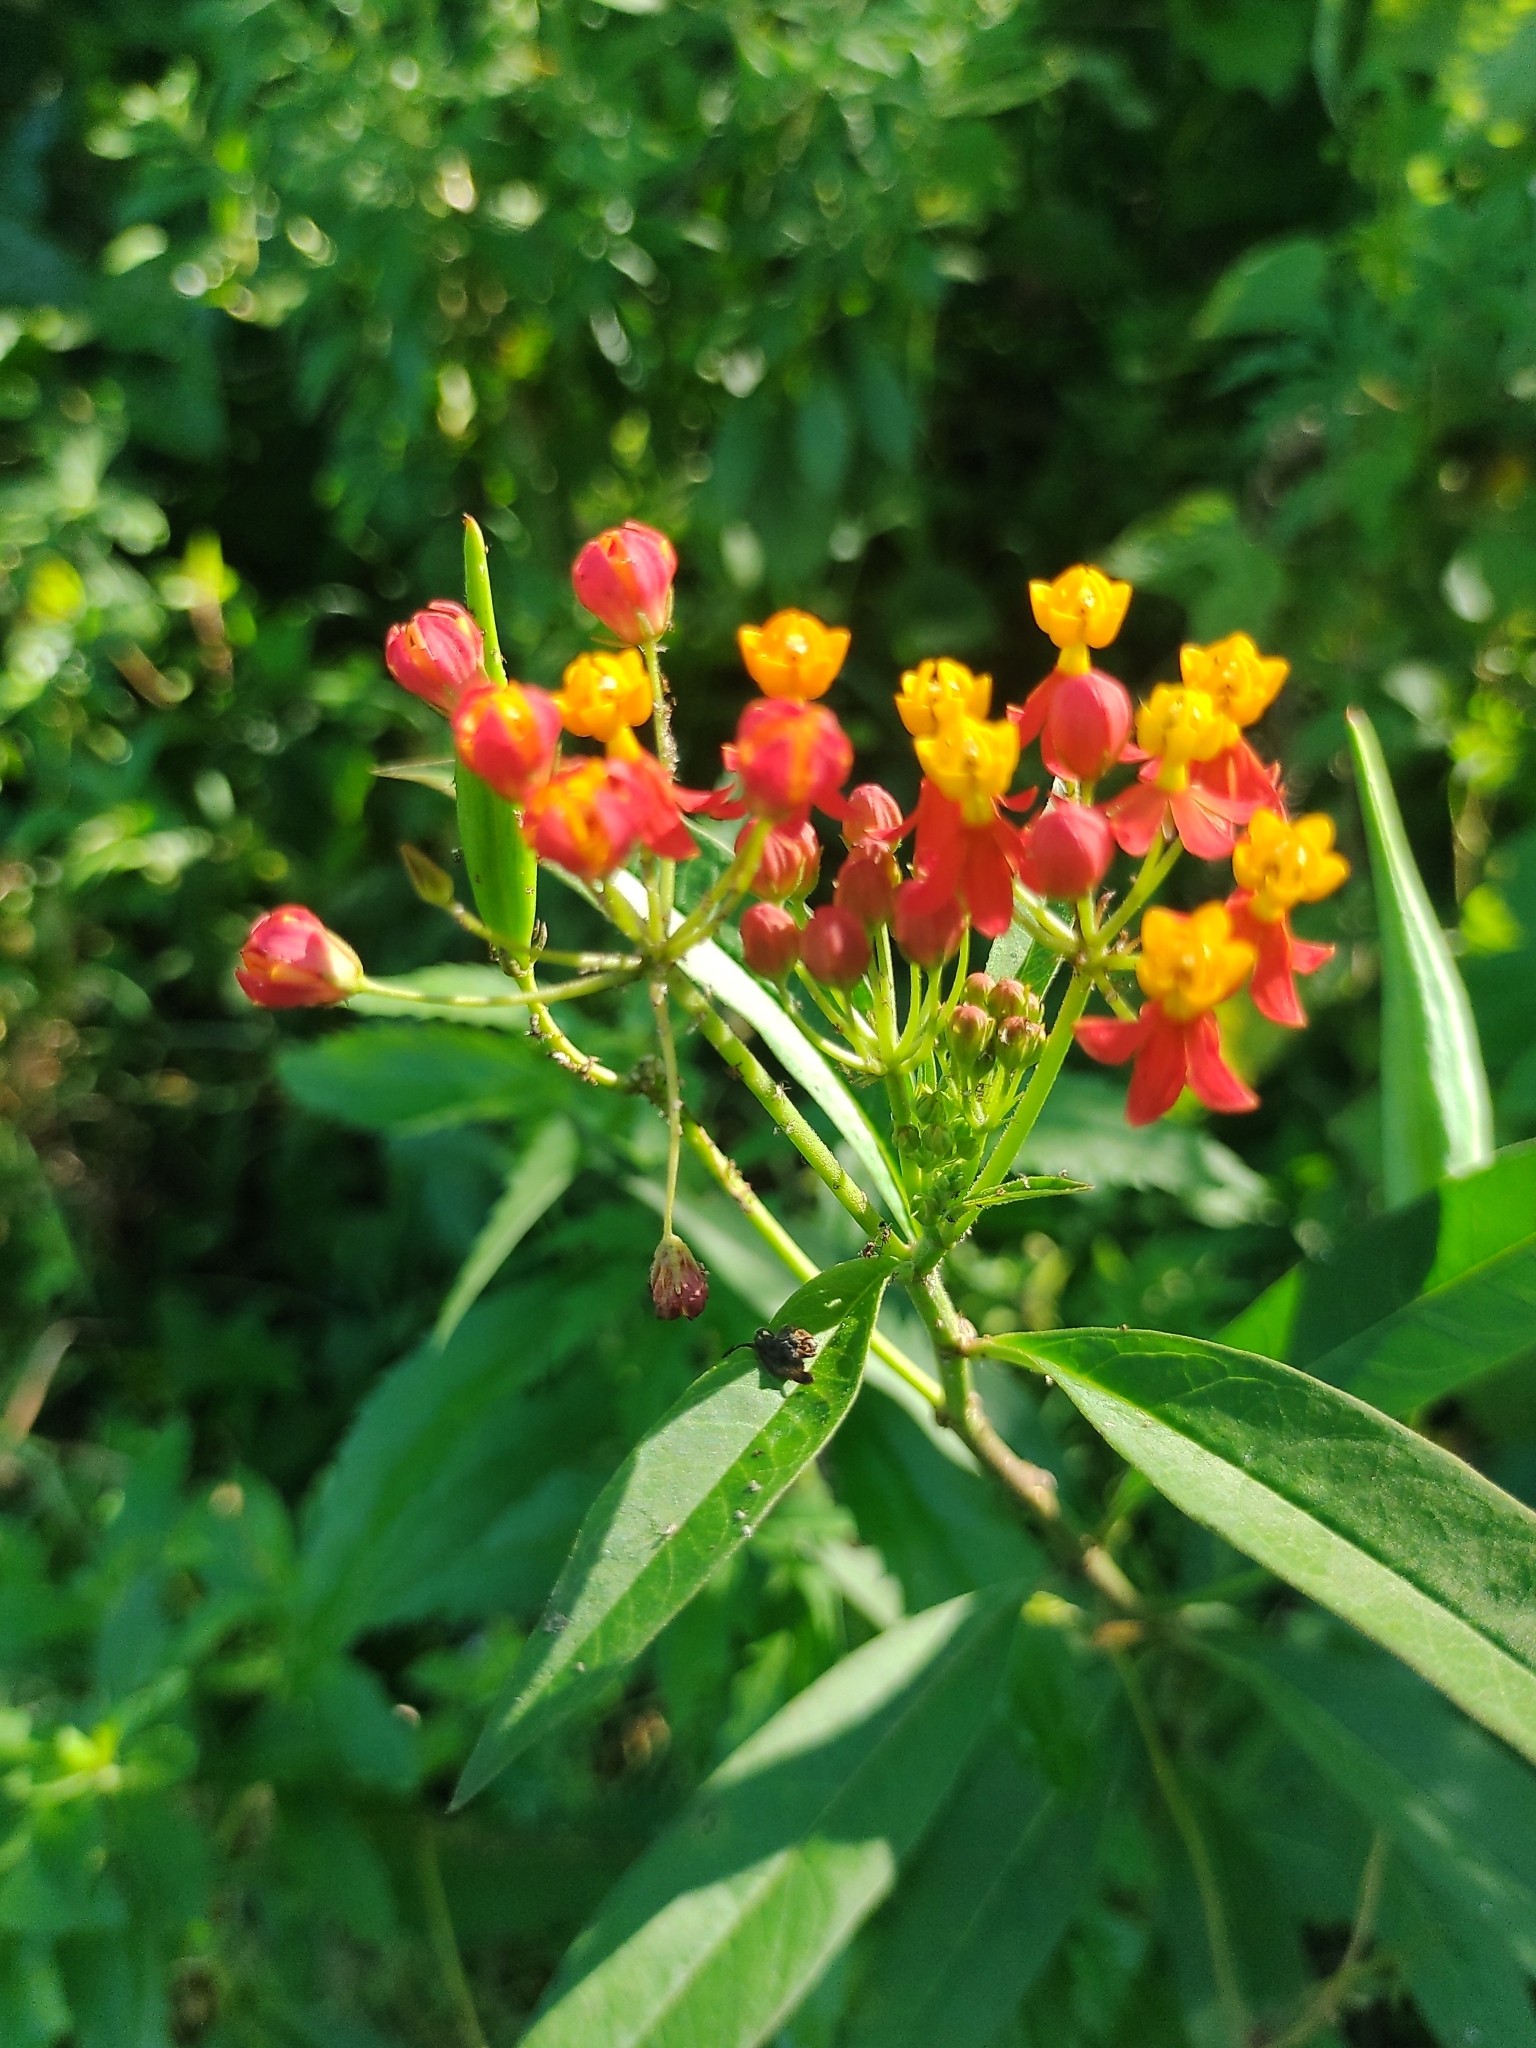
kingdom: Plantae
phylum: Tracheophyta
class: Magnoliopsida
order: Gentianales
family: Apocynaceae
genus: Asclepias
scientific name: Asclepias curassavica
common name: Bloodflower
